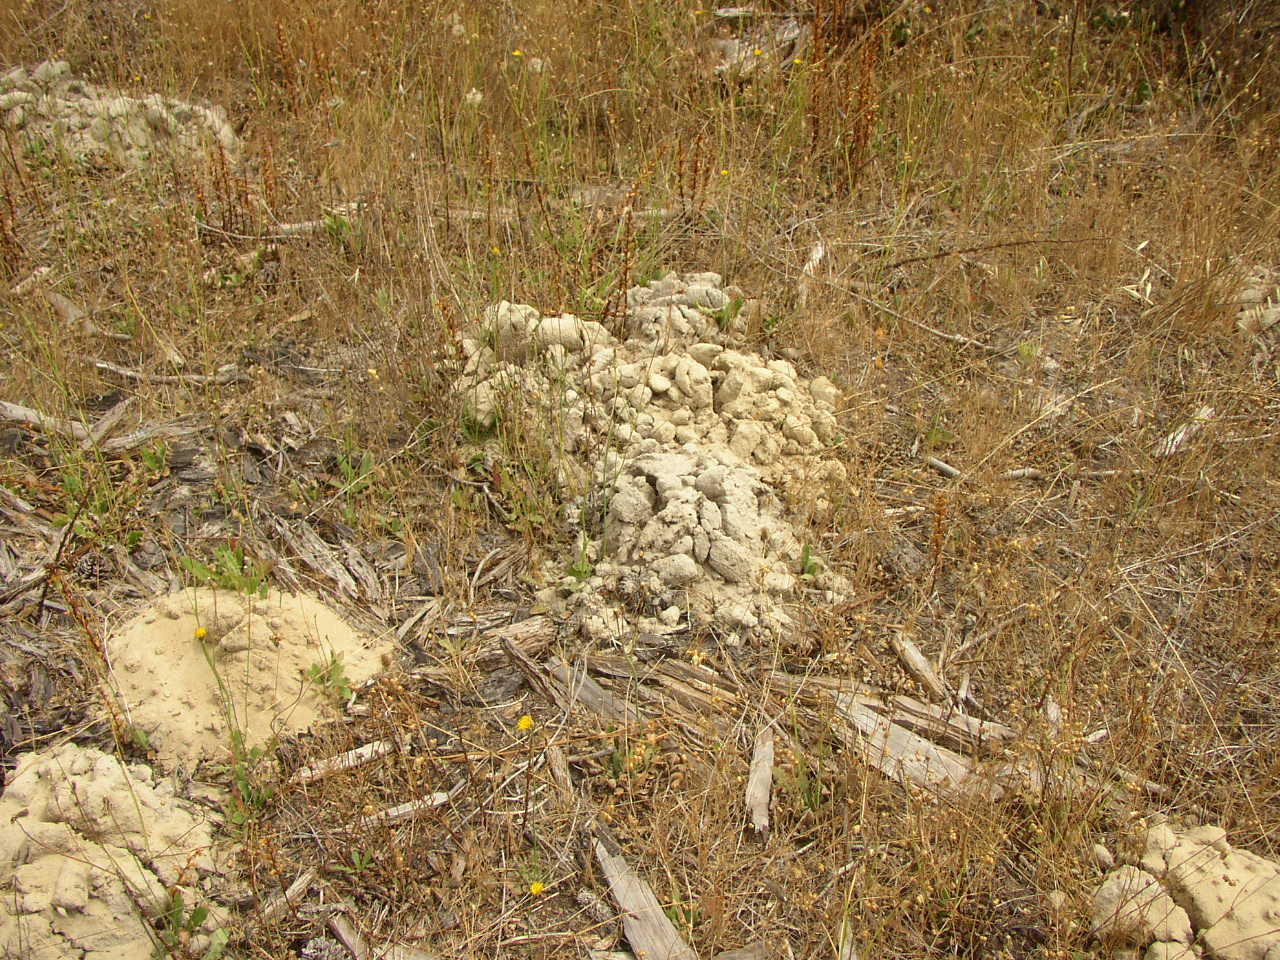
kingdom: Animalia
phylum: Chordata
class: Mammalia
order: Rodentia
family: Bathyergidae
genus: Bathyergus
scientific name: Bathyergus suillus
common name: Cape dune mole rat
